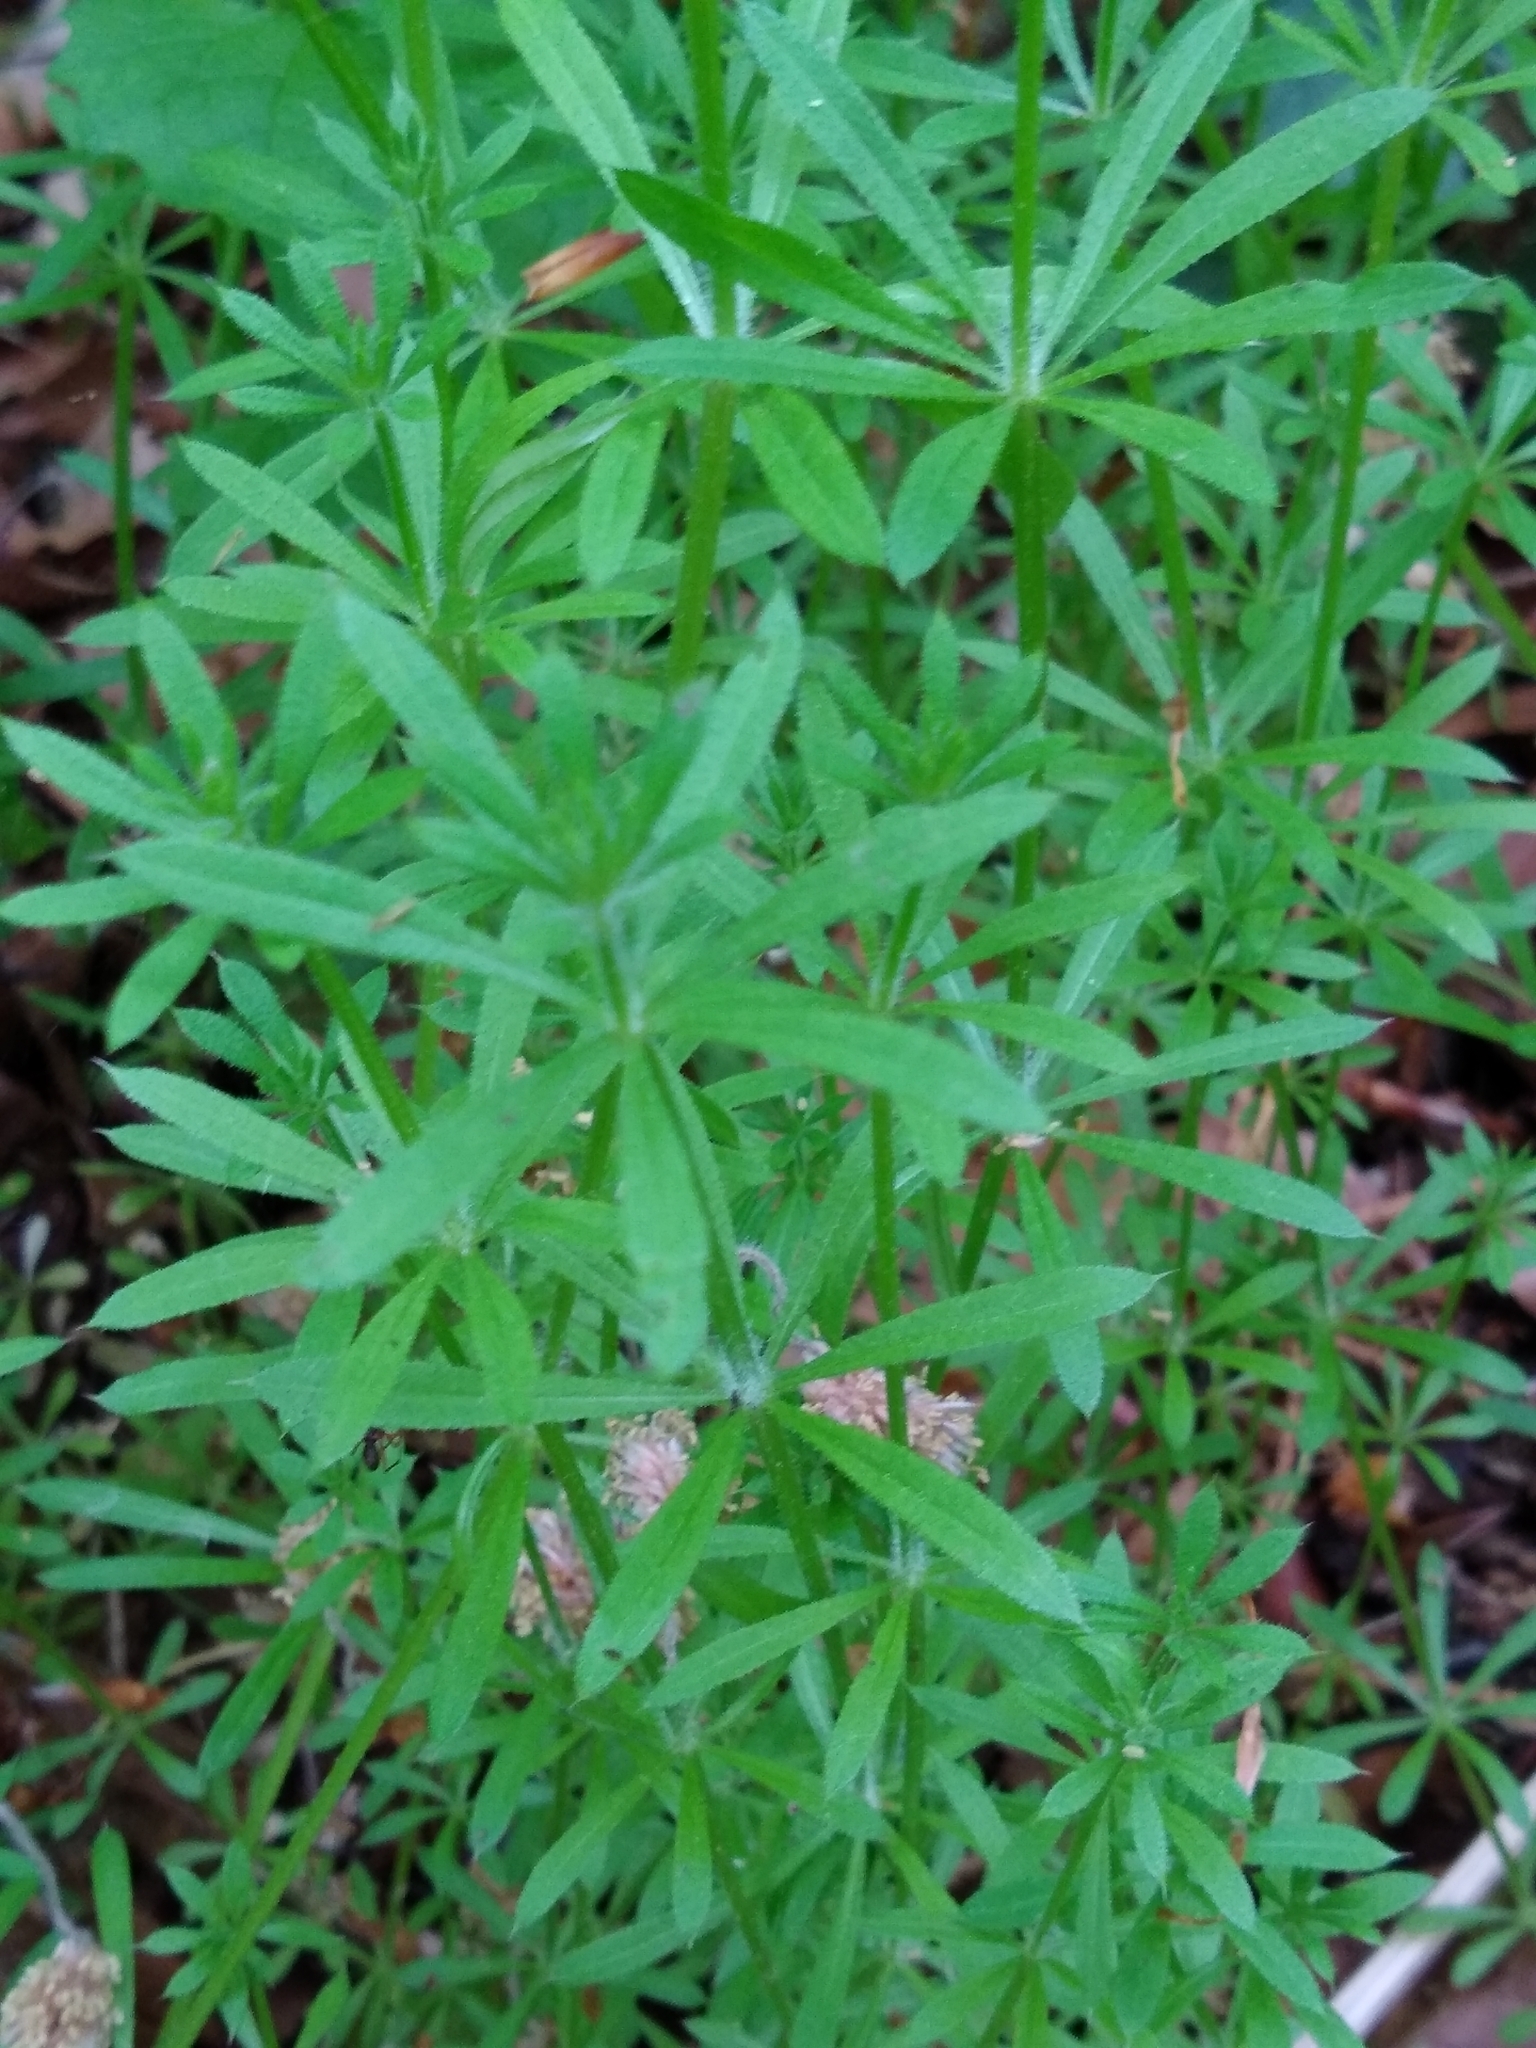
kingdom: Plantae
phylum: Tracheophyta
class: Magnoliopsida
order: Gentianales
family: Rubiaceae
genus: Galium
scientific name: Galium aparine
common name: Cleavers
